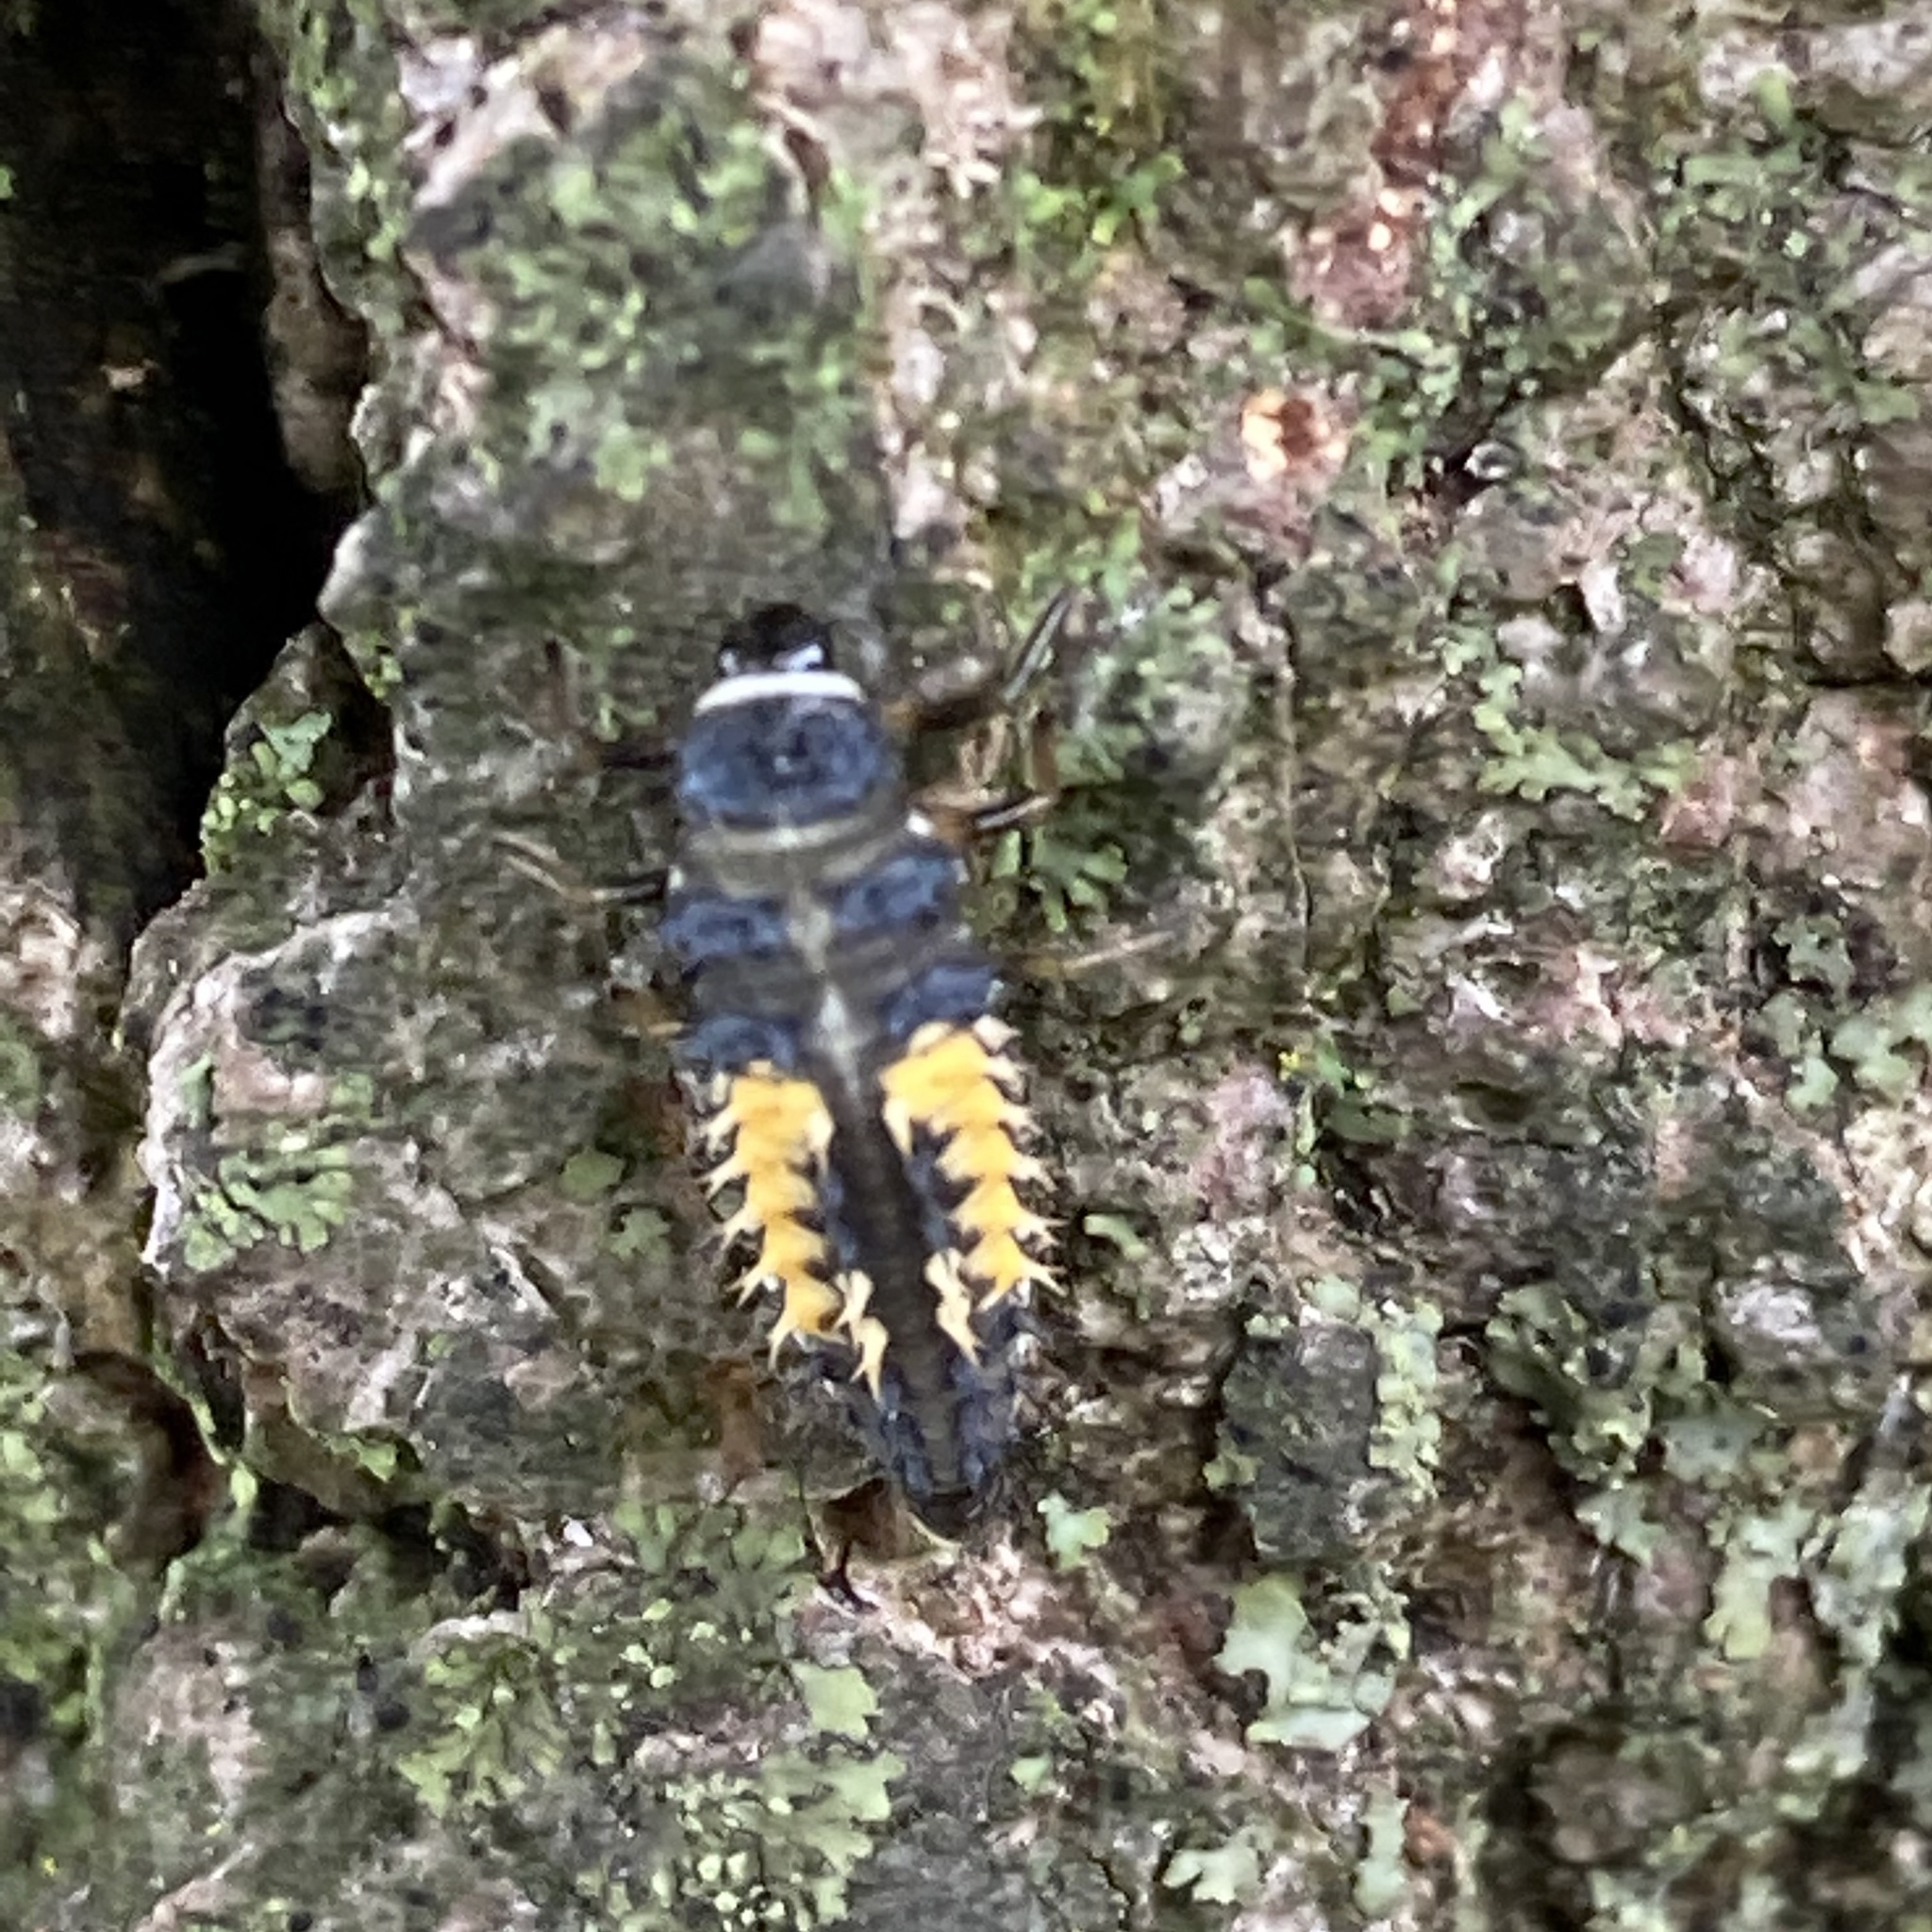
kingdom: Animalia
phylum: Arthropoda
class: Insecta
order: Coleoptera
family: Coccinellidae
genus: Harmonia
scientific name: Harmonia axyridis
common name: Harlequin ladybird
